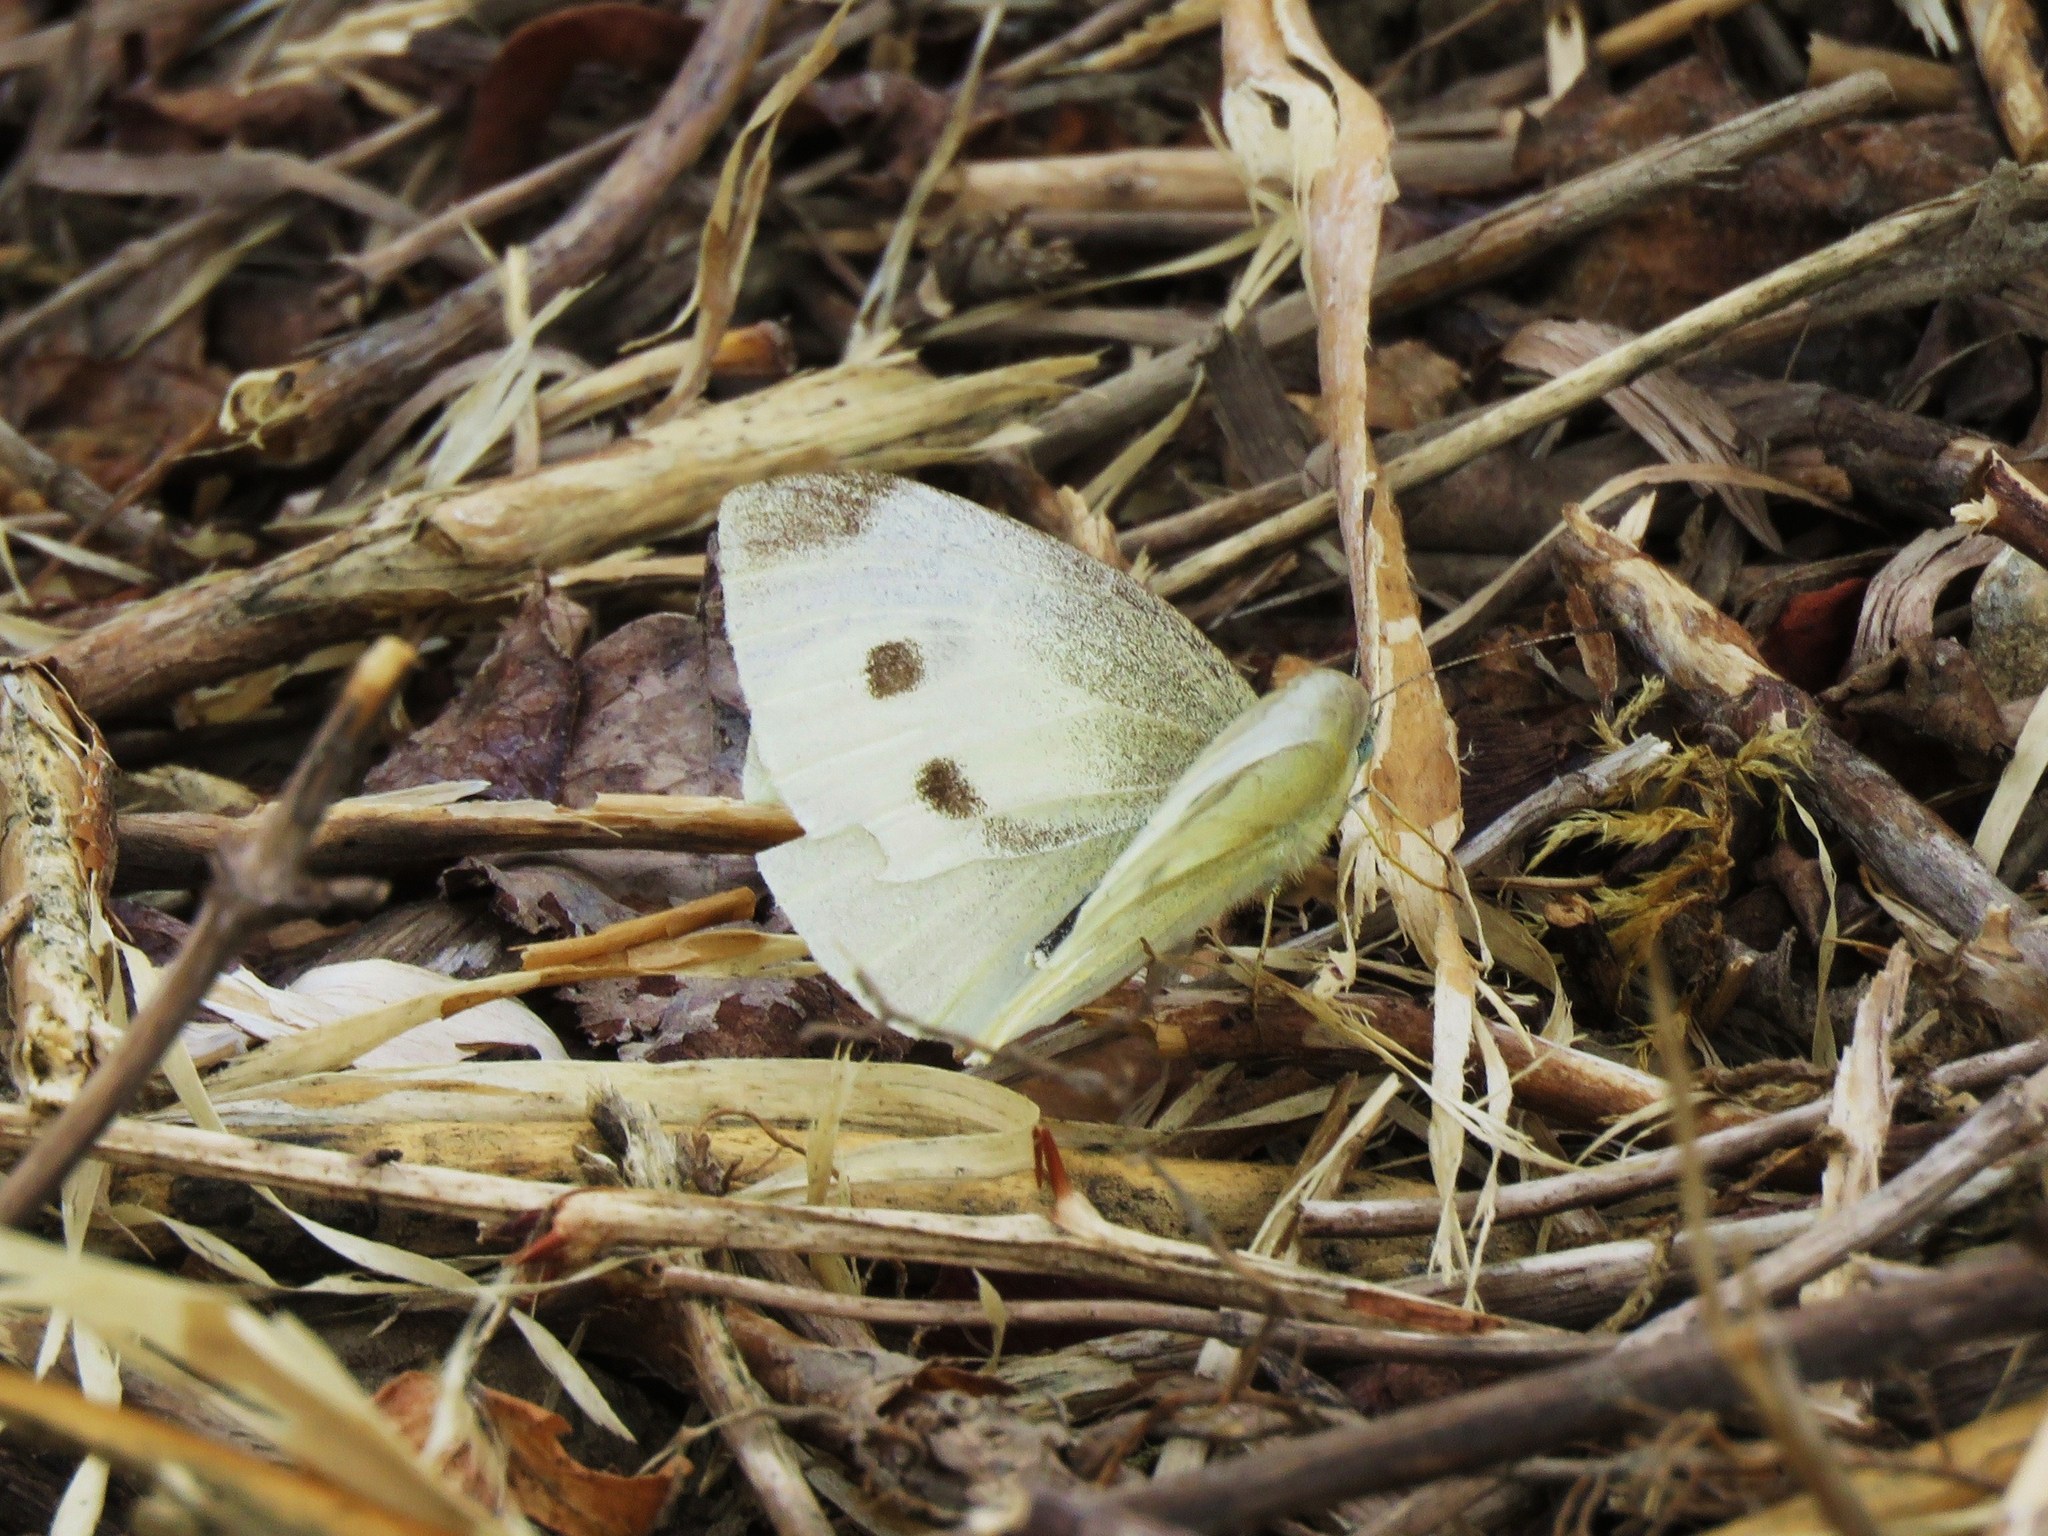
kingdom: Animalia
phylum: Arthropoda
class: Insecta
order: Lepidoptera
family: Pieridae
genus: Pieris
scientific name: Pieris rapae
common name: Small white
